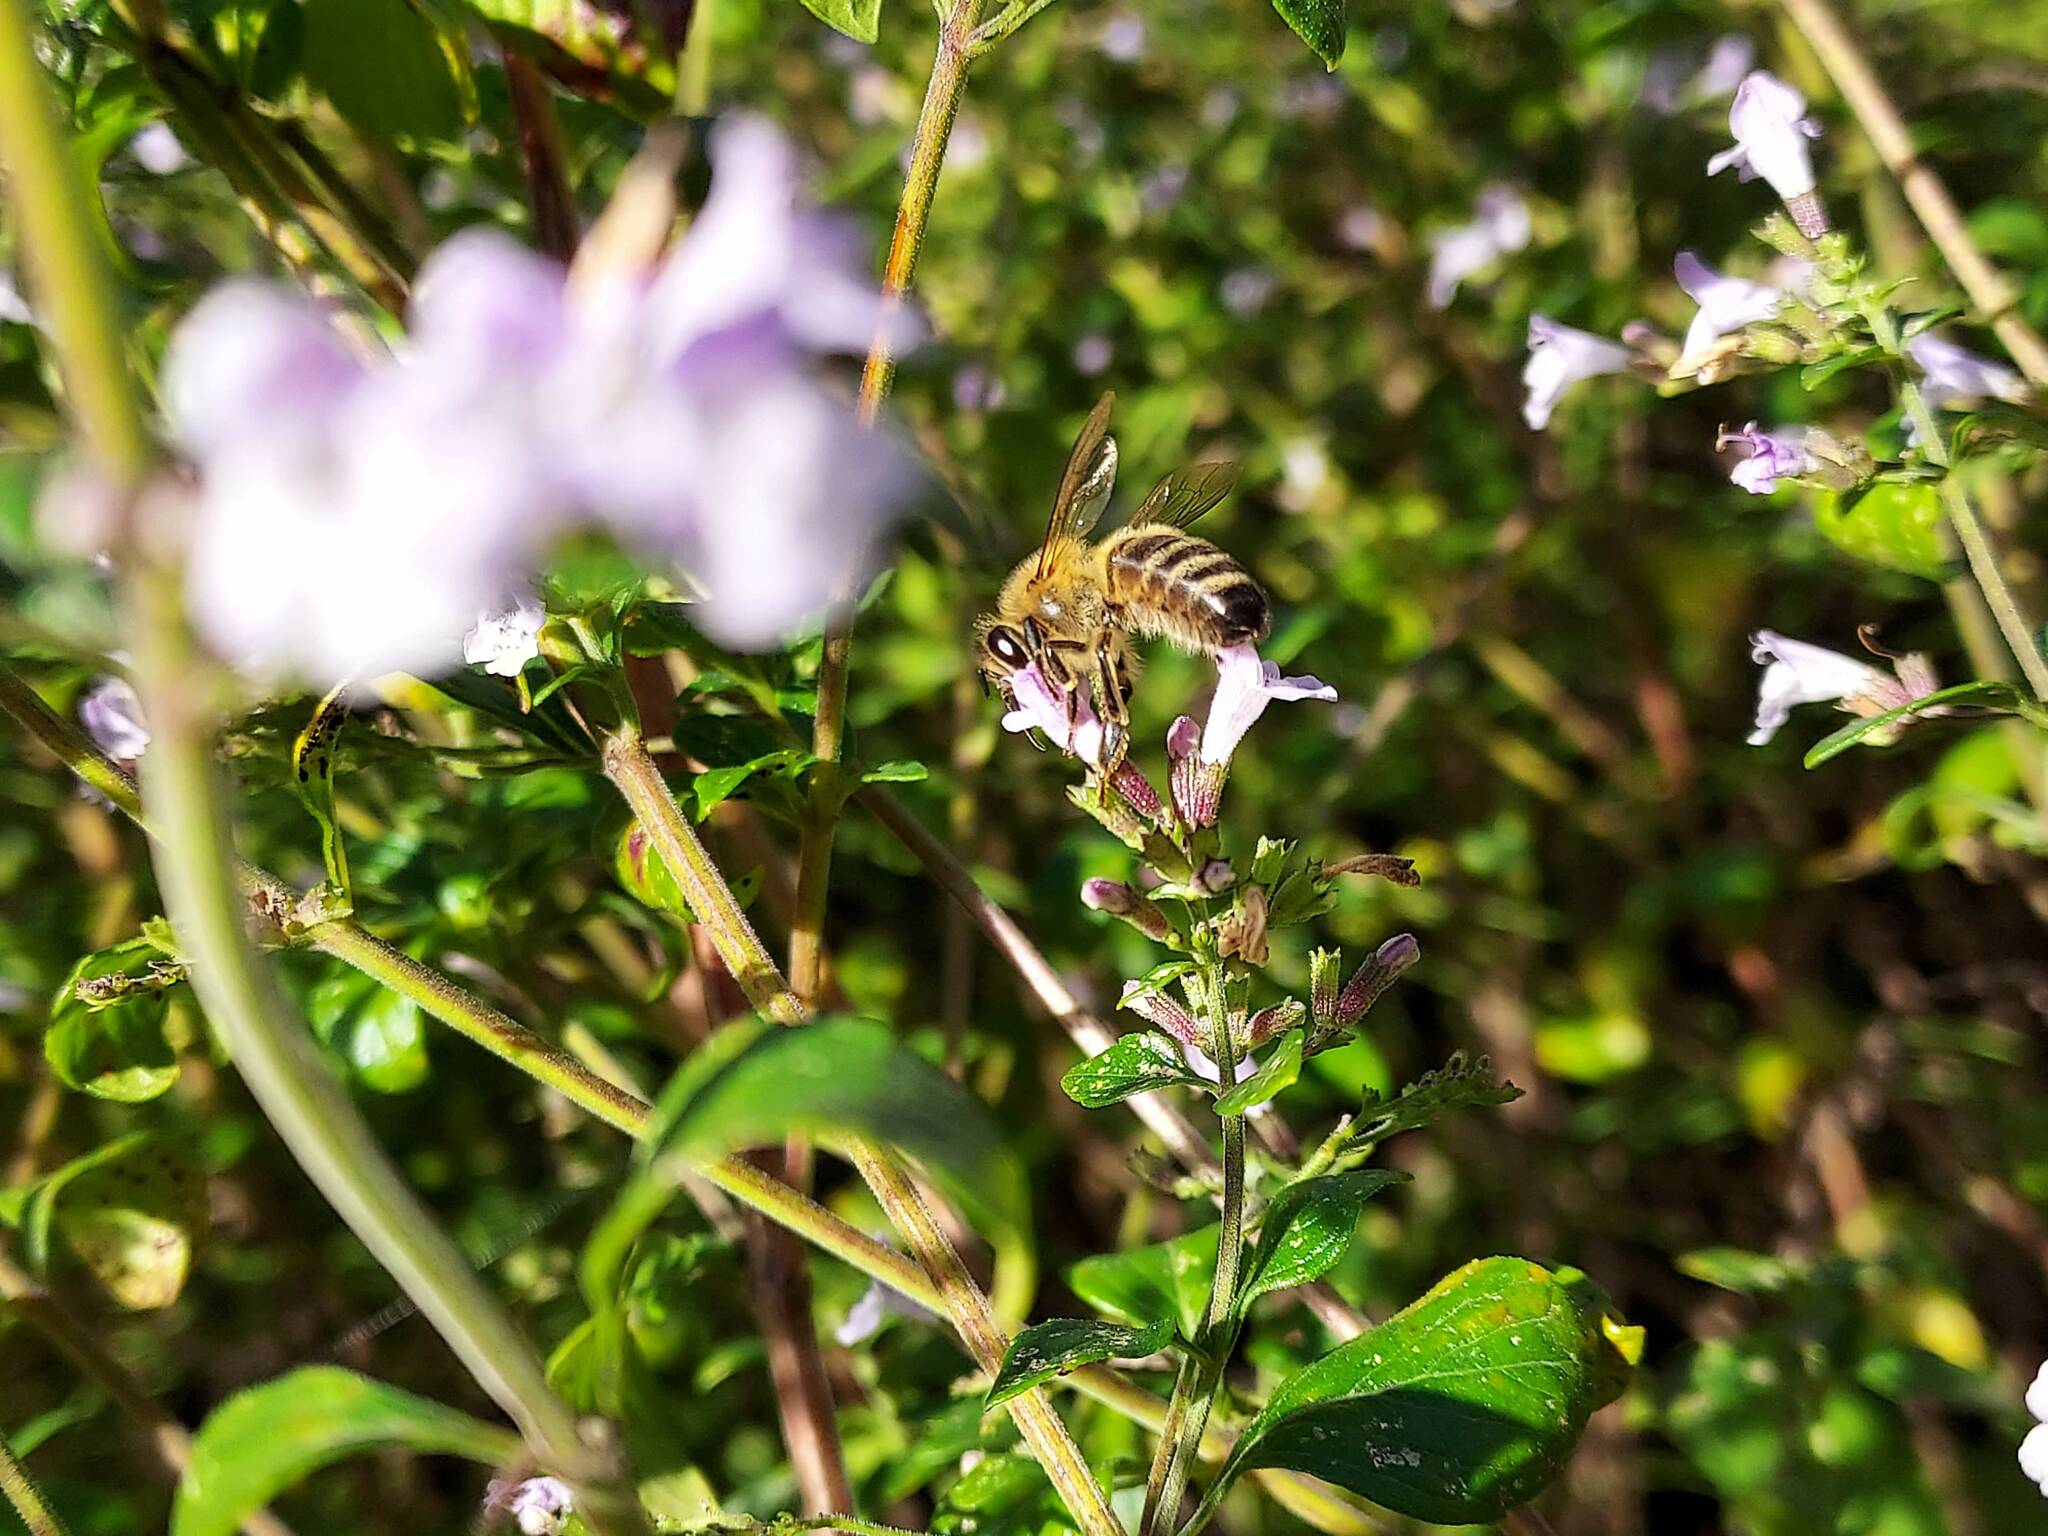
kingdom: Animalia
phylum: Arthropoda
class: Insecta
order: Hymenoptera
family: Apidae
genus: Apis
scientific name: Apis mellifera
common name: Honey bee
